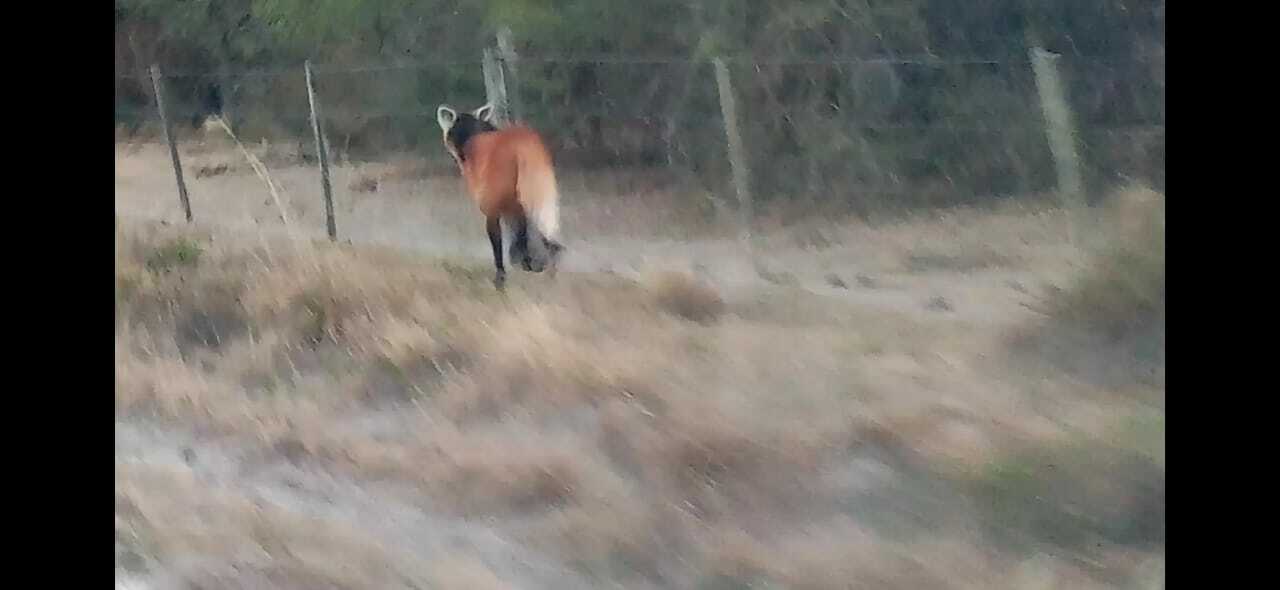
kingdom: Animalia
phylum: Chordata
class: Mammalia
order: Carnivora
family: Canidae
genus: Chrysocyon
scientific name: Chrysocyon brachyurus
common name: Maned wolf
